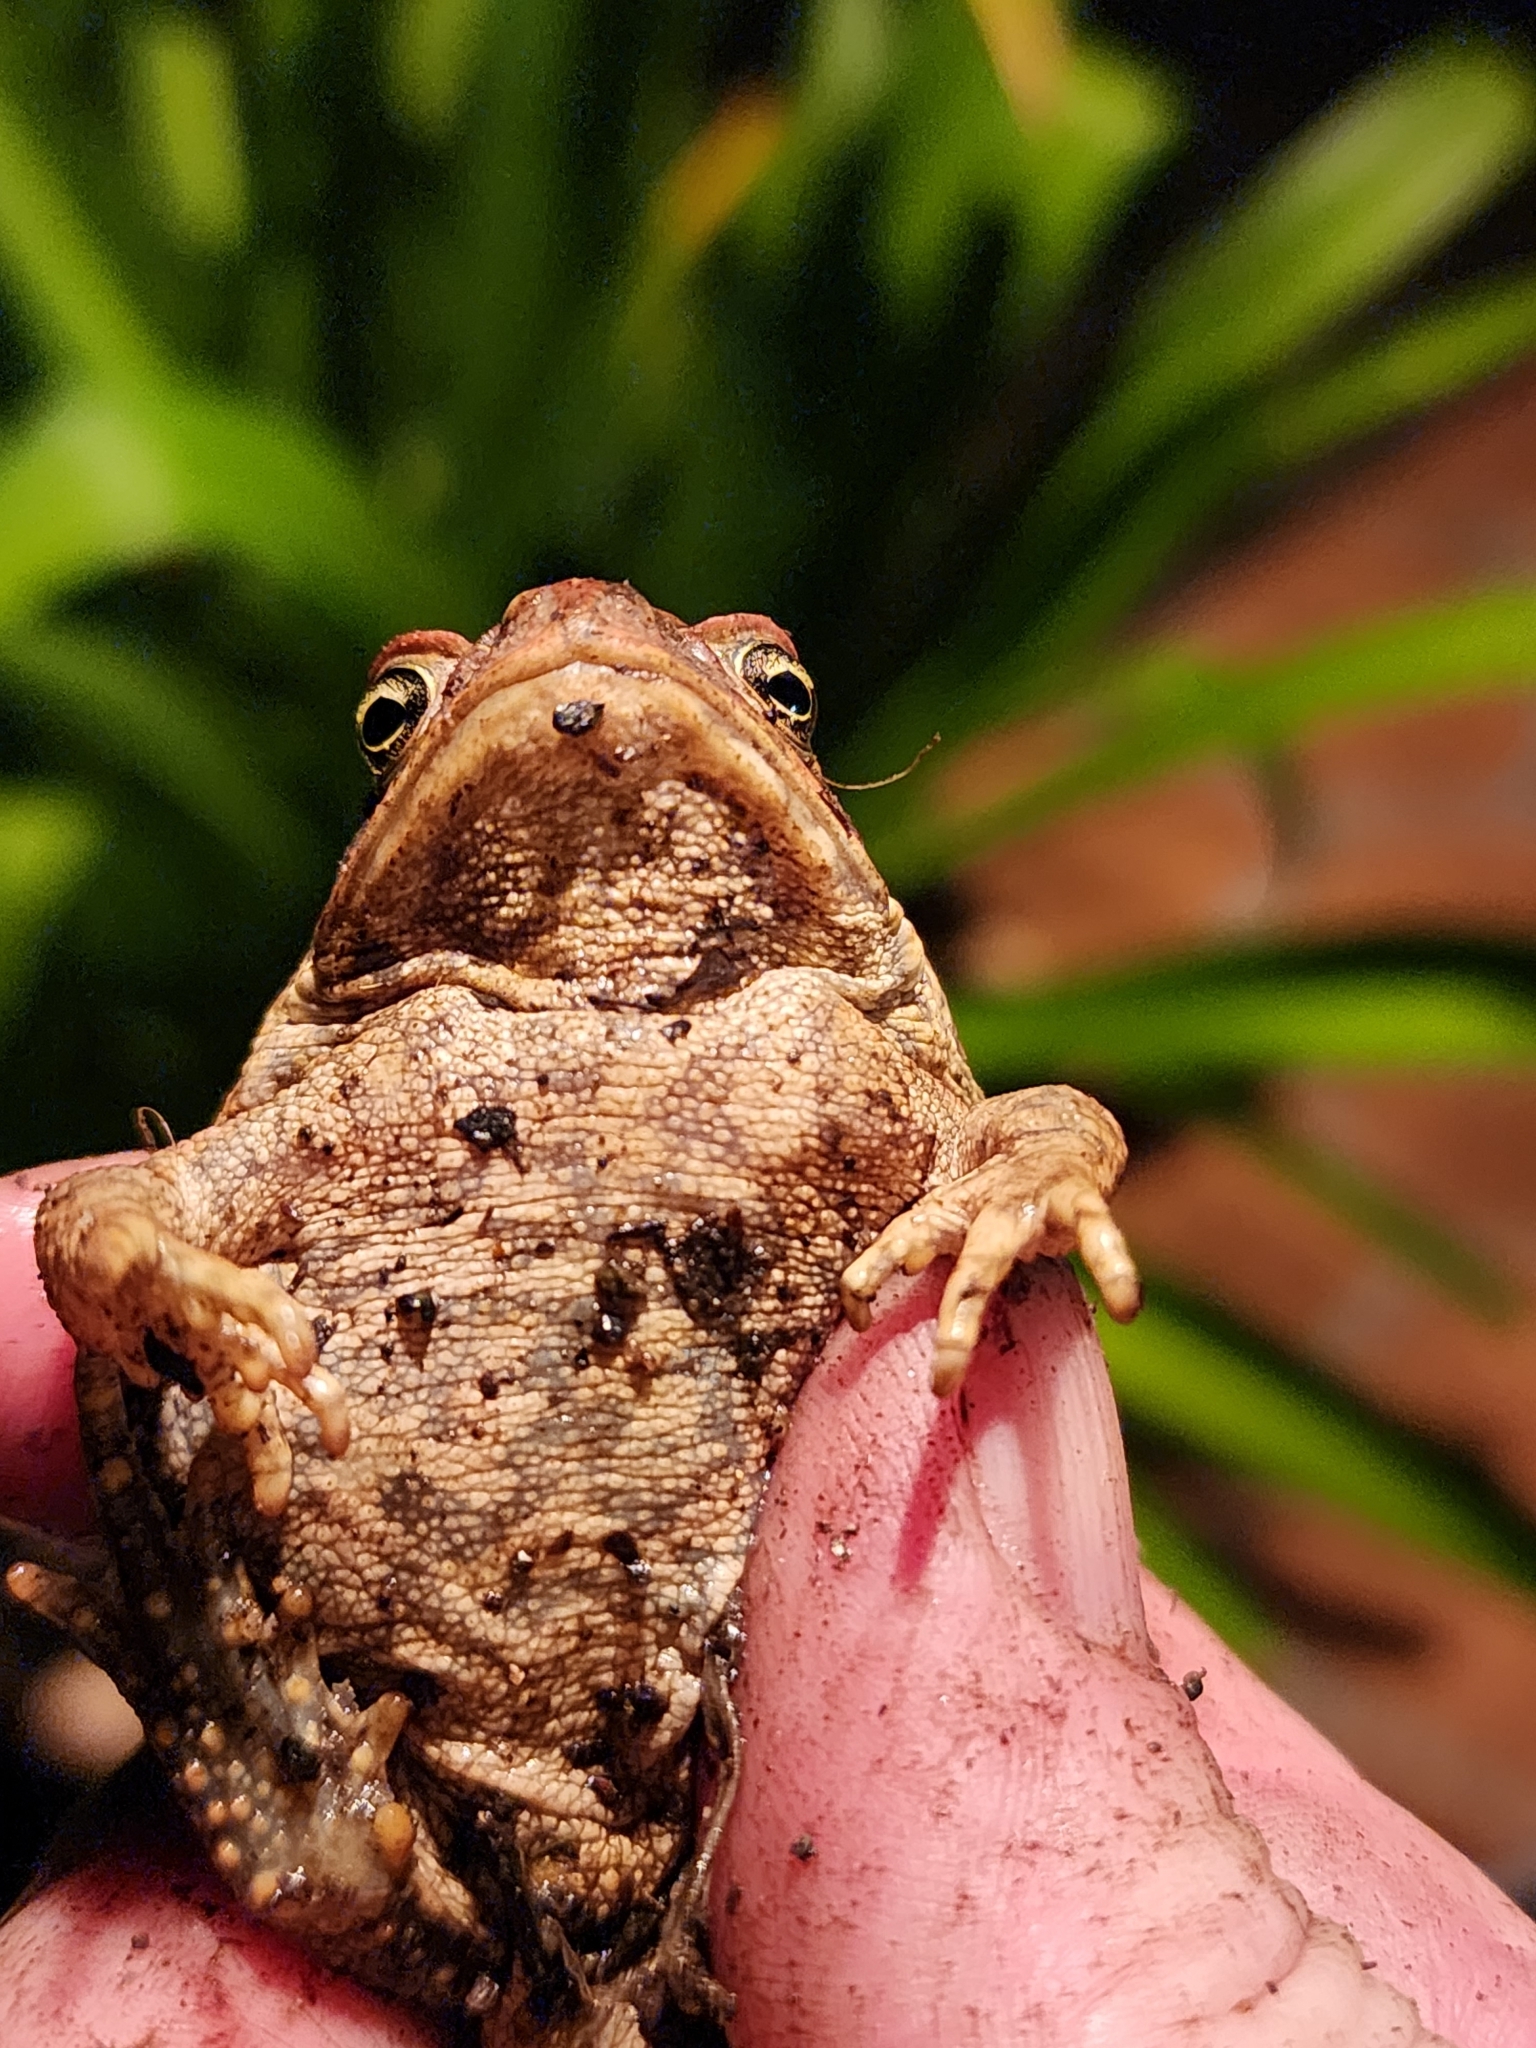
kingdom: Animalia
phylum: Chordata
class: Amphibia
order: Anura
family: Bufonidae
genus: Rhinella
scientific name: Rhinella marina
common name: Cane toad
